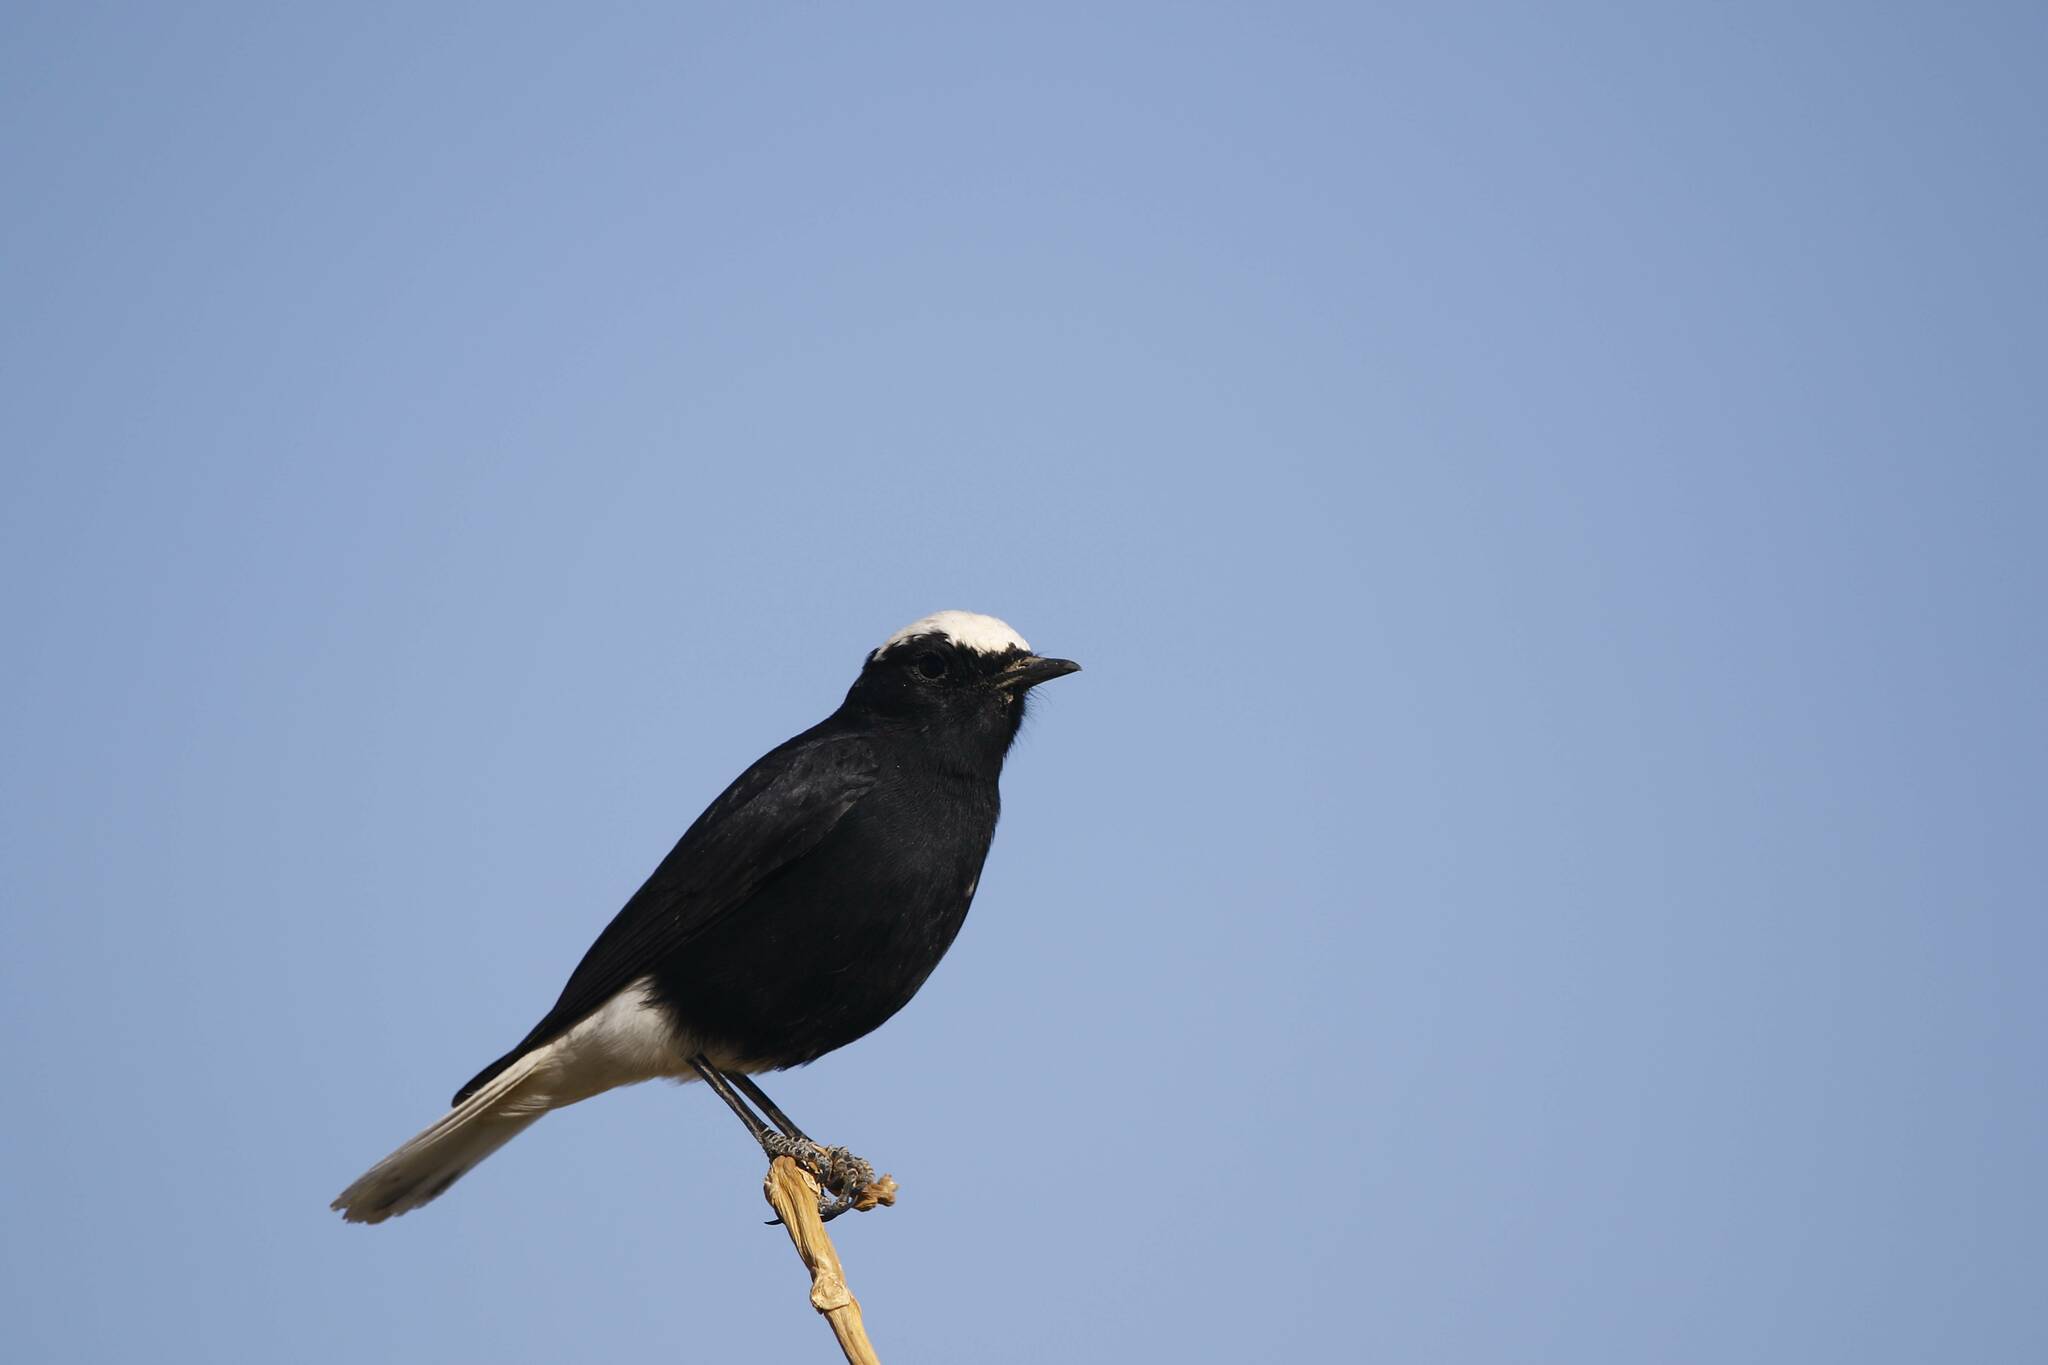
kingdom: Animalia
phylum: Chordata
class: Aves
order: Passeriformes
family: Muscicapidae
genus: Oenanthe
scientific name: Oenanthe leucopyga
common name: White-crowned wheatear
